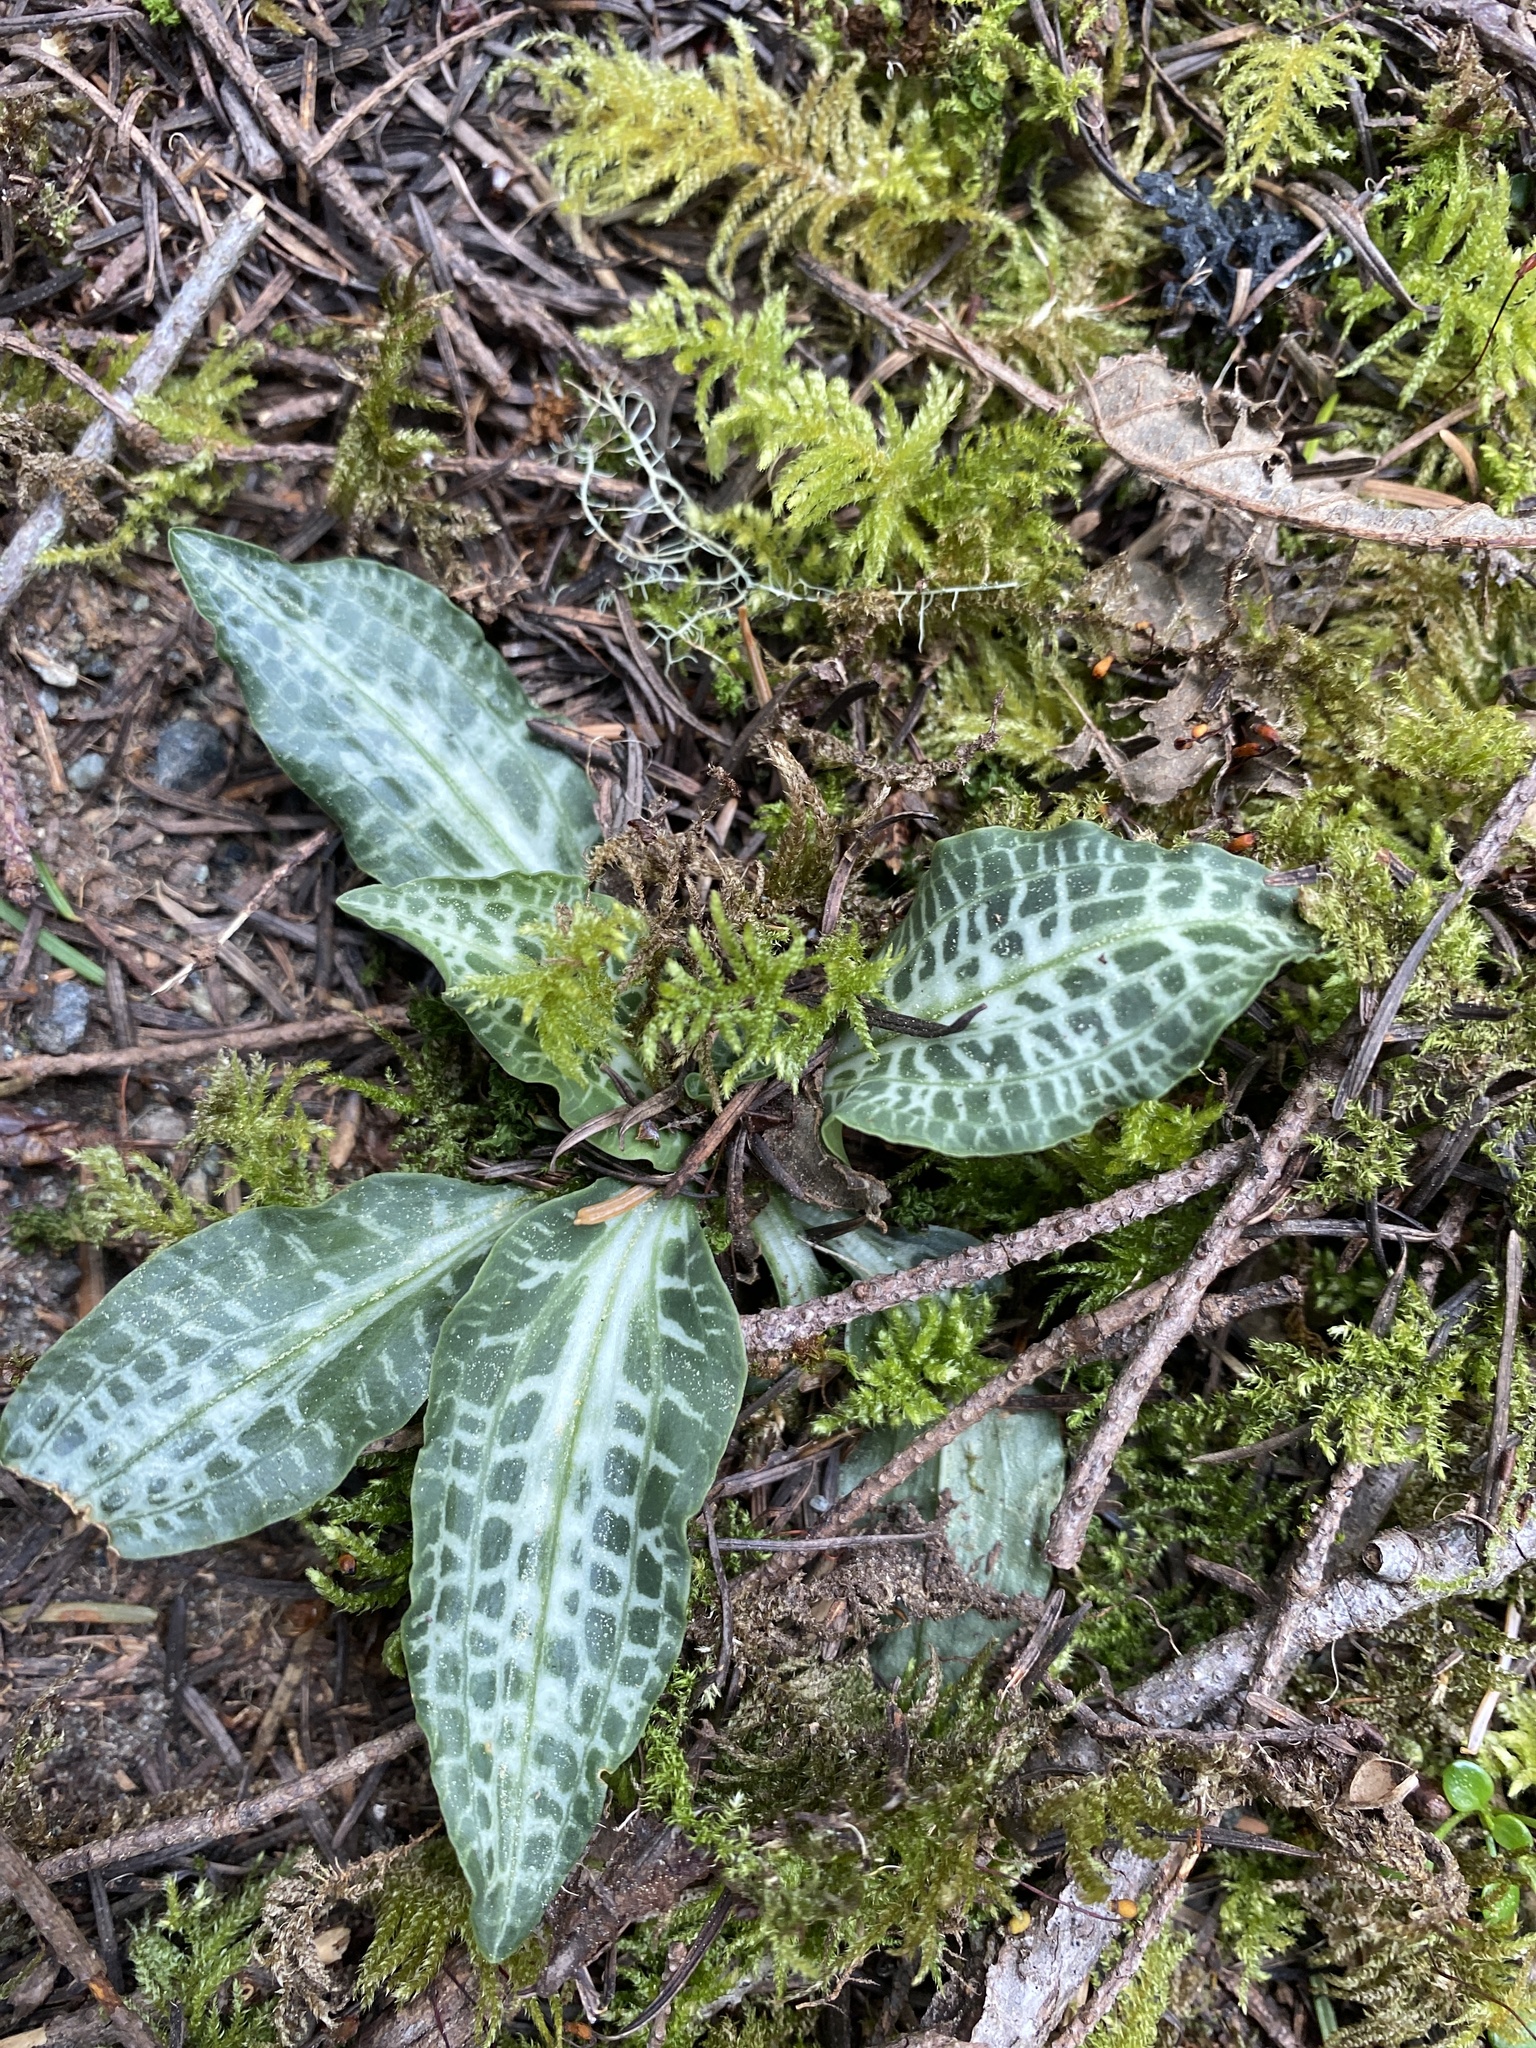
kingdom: Plantae
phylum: Tracheophyta
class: Liliopsida
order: Asparagales
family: Orchidaceae
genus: Goodyera
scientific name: Goodyera oblongifolia
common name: Giant rattlesnake-plantain
